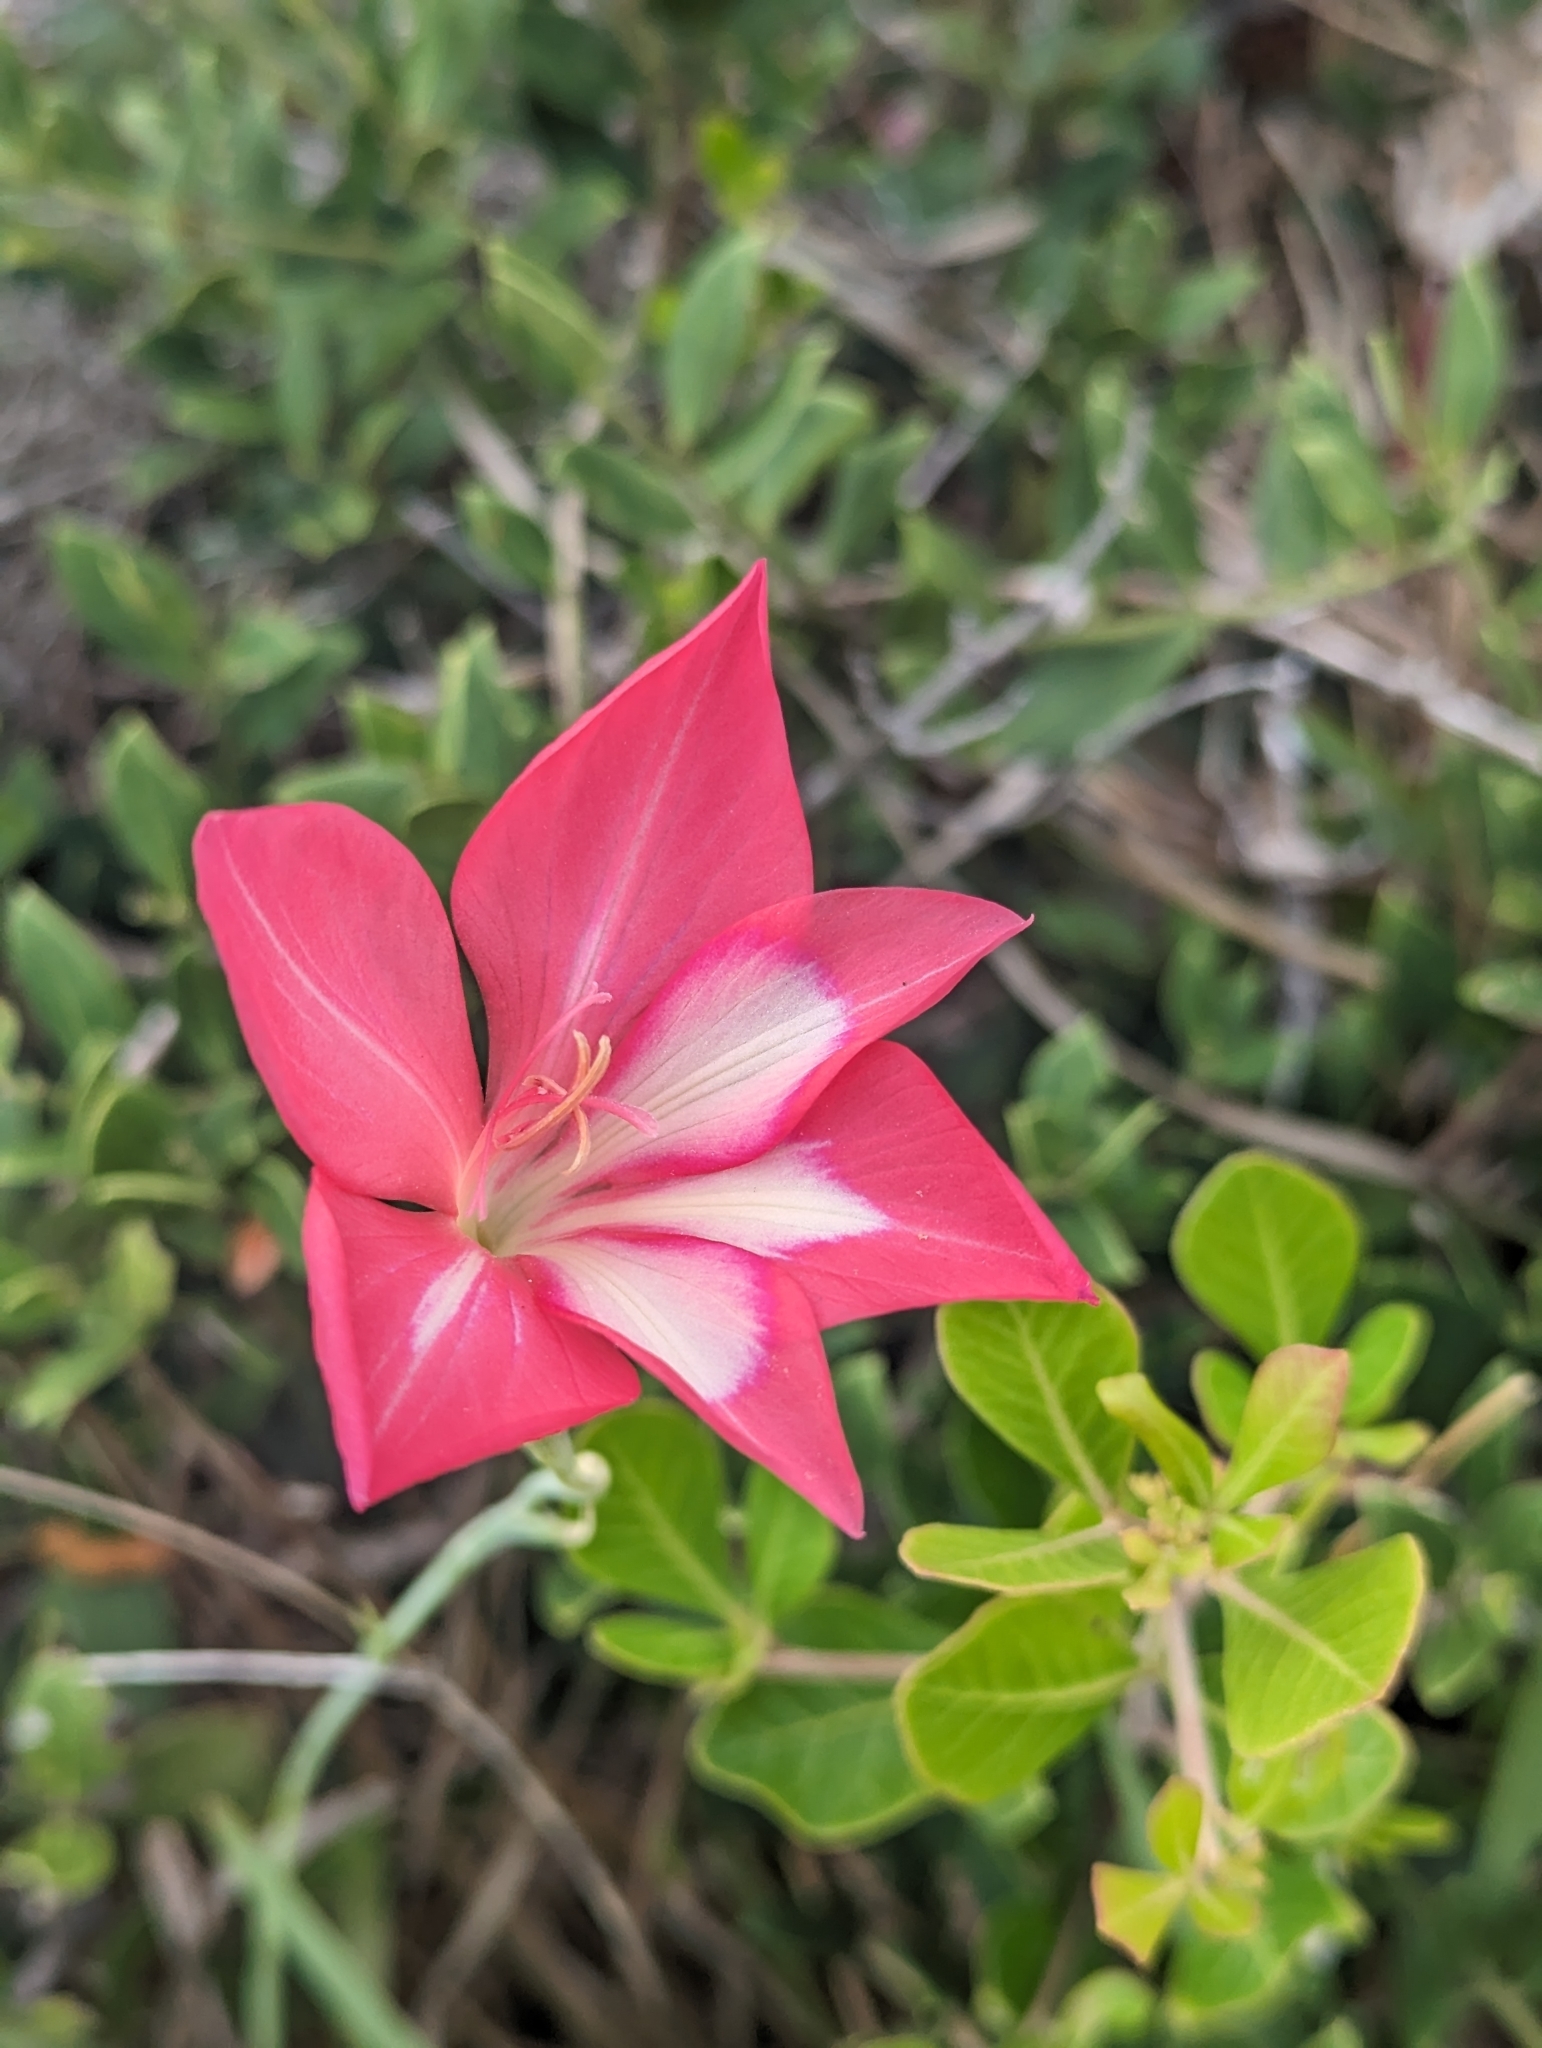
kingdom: Plantae
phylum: Tracheophyta
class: Liliopsida
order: Asparagales
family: Iridaceae
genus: Gladiolus
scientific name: Gladiolus carmineus
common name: Hermanus gladiolus
